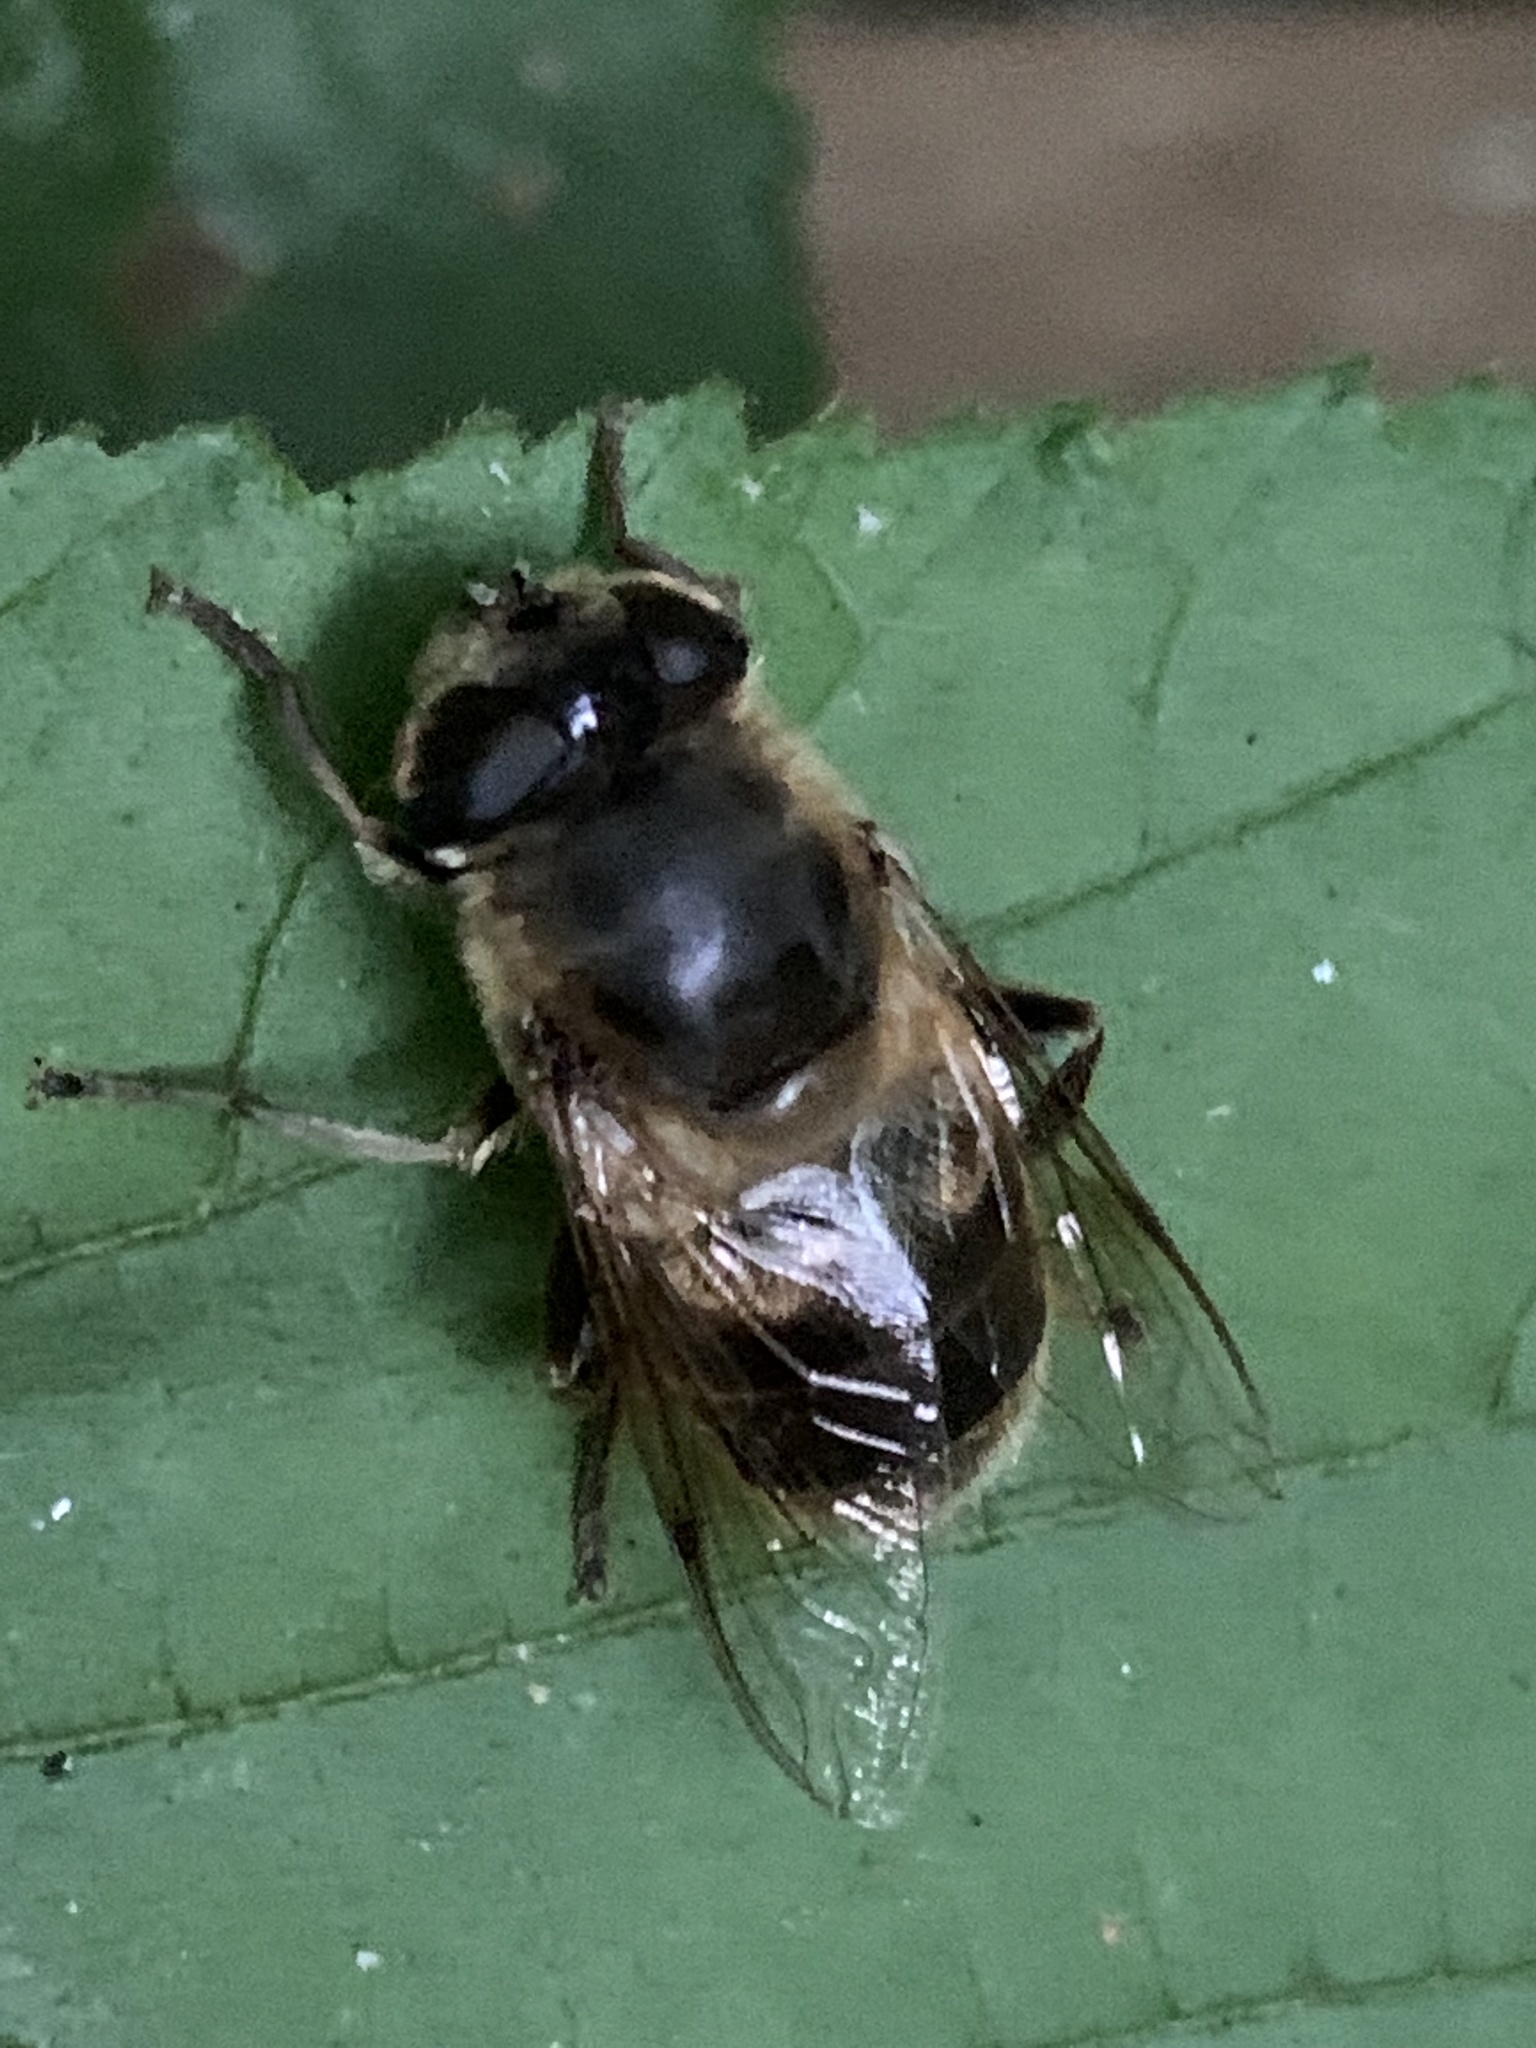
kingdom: Animalia
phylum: Arthropoda
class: Insecta
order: Diptera
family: Syrphidae
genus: Eristalis
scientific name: Eristalis tenax
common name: Drone fly
